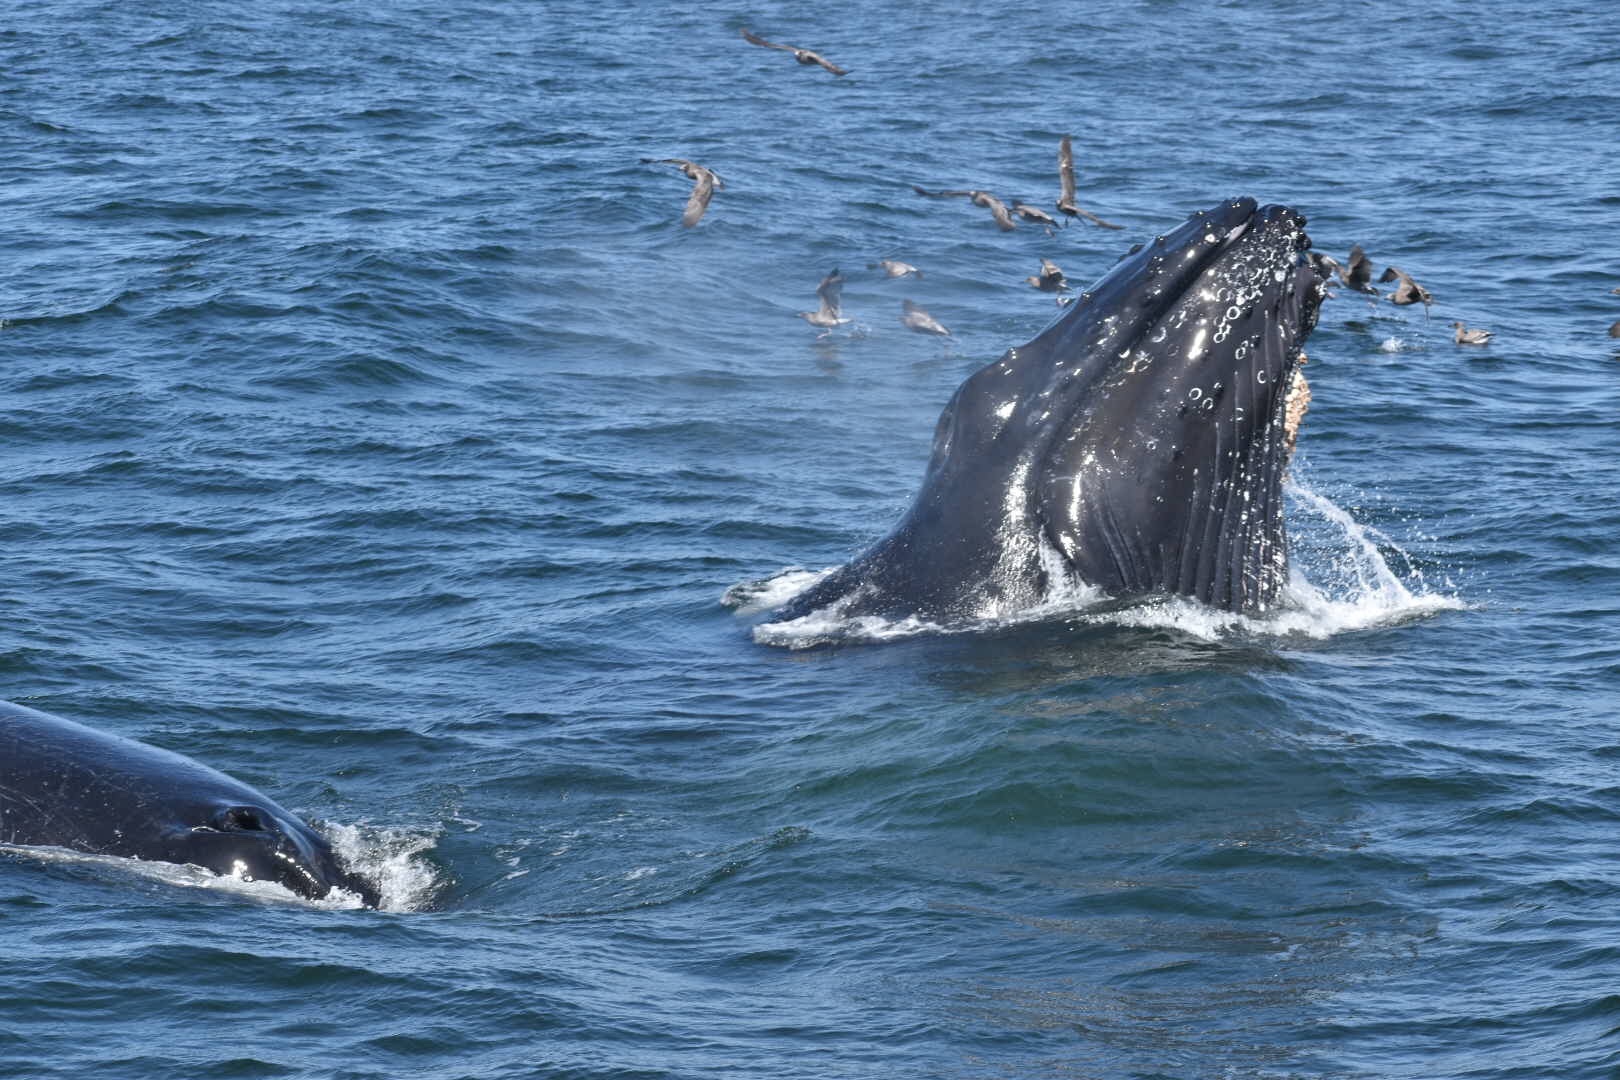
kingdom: Animalia
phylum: Chordata
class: Mammalia
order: Cetacea
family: Balaenopteridae
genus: Megaptera
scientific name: Megaptera novaeangliae
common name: Humpback whale
